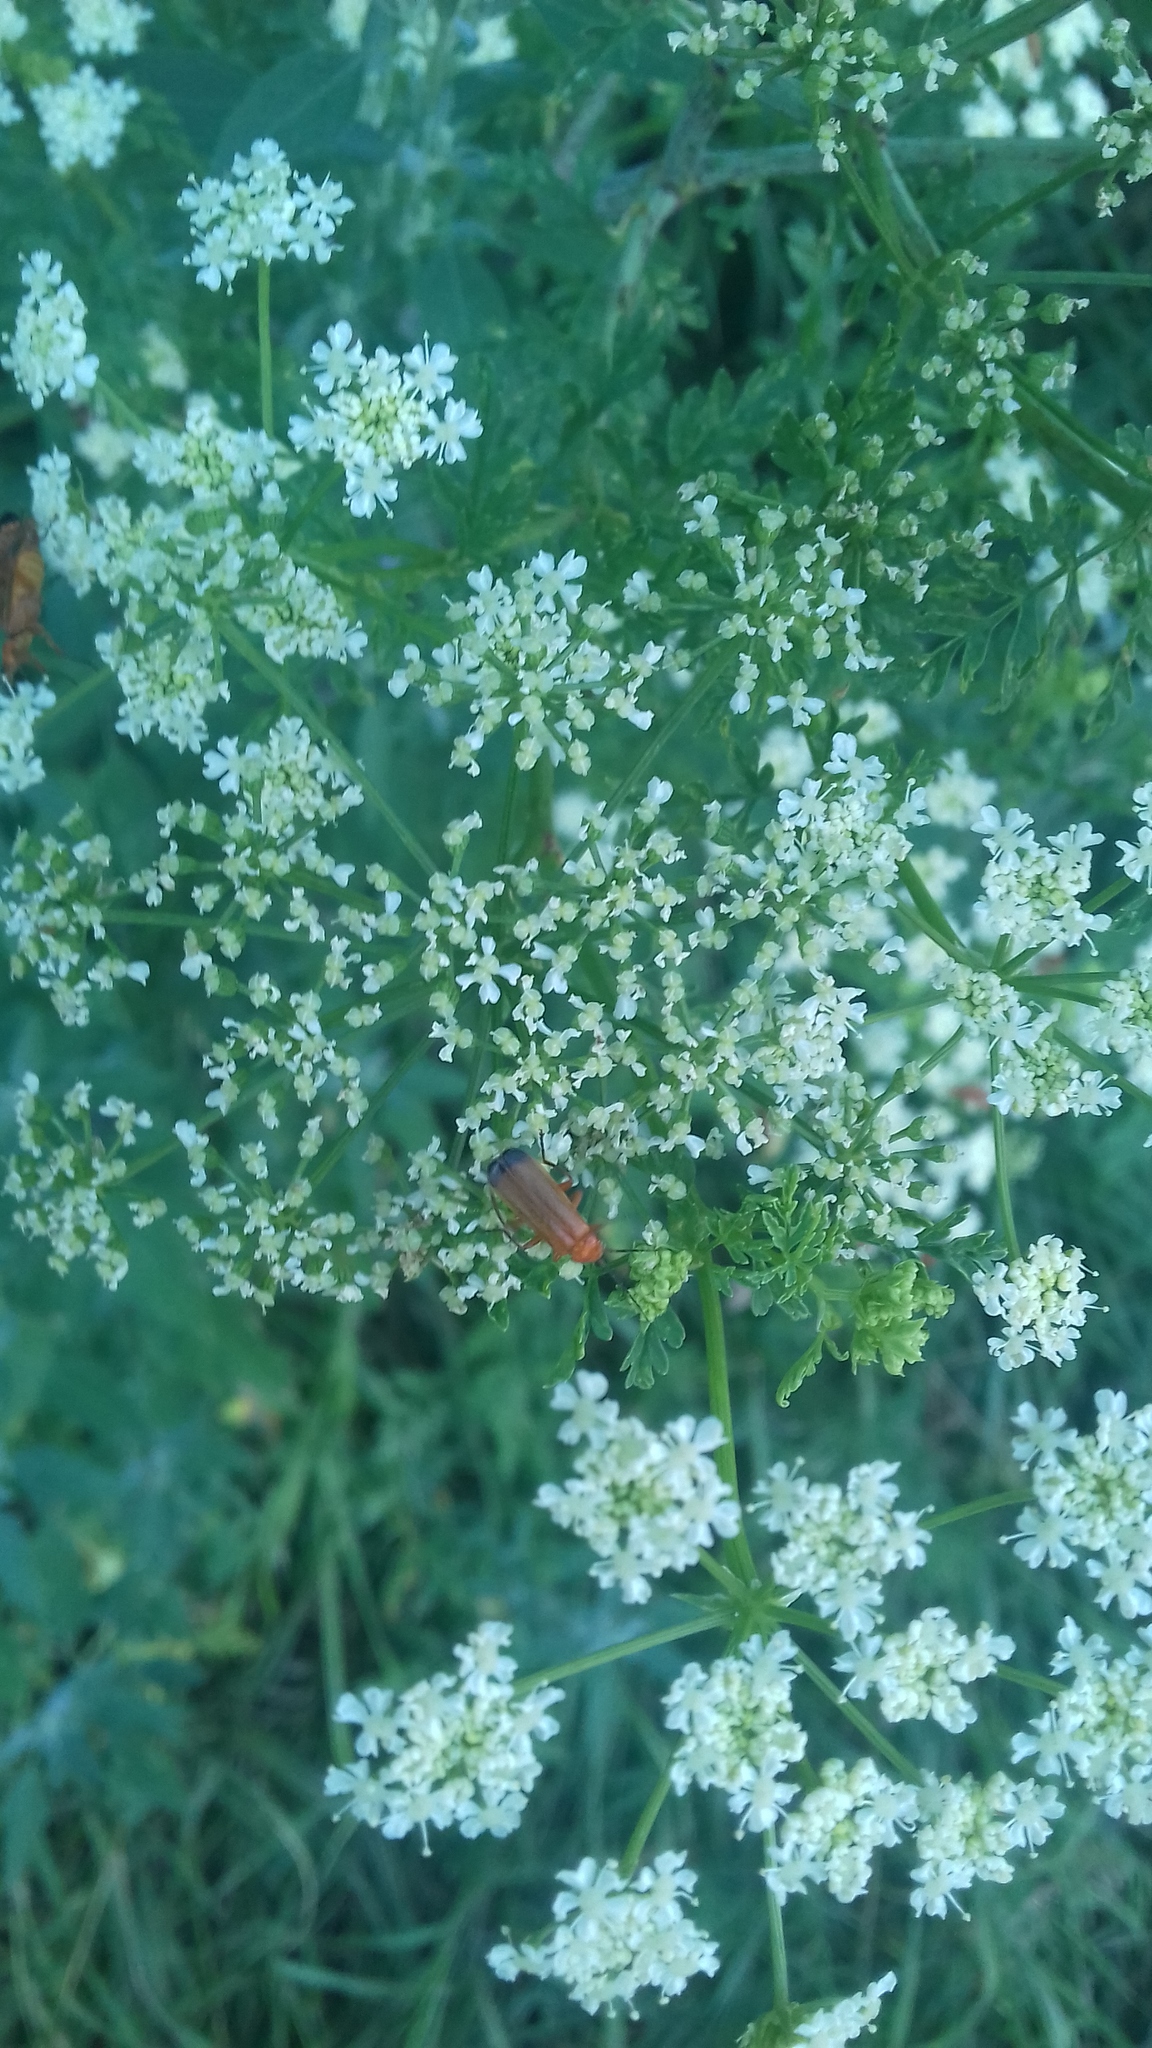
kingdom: Animalia
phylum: Arthropoda
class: Insecta
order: Coleoptera
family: Cantharidae
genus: Rhagonycha
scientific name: Rhagonycha fulva
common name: Common red soldier beetle
